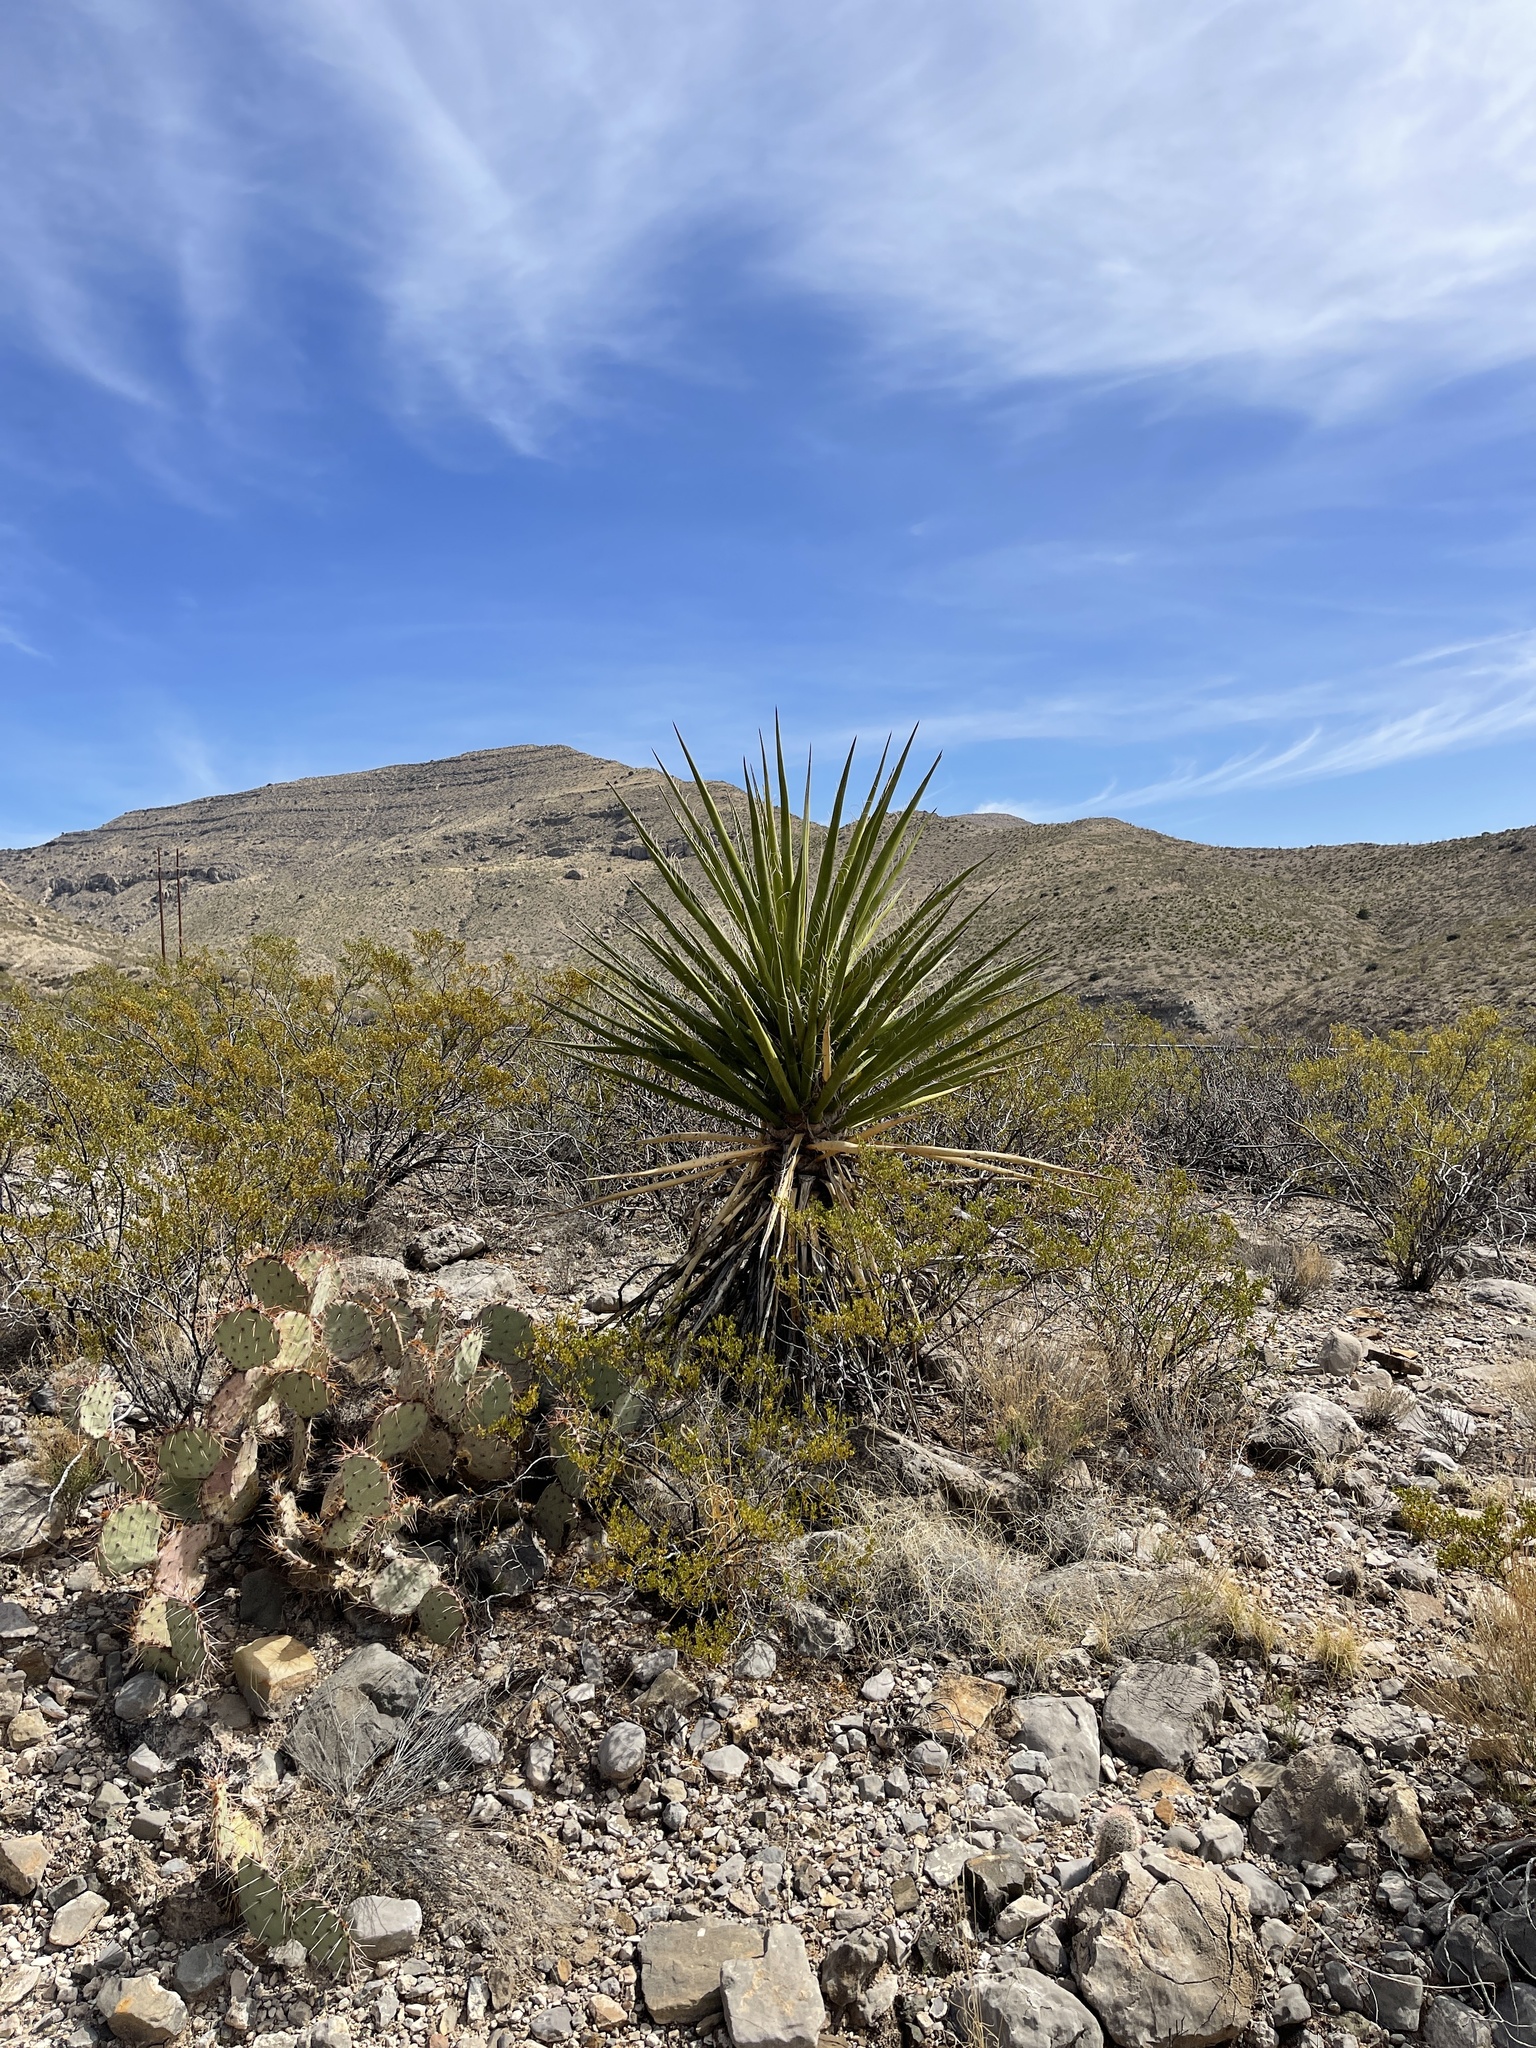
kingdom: Plantae
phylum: Tracheophyta
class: Liliopsida
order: Asparagales
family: Asparagaceae
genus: Yucca
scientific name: Yucca treculiana
